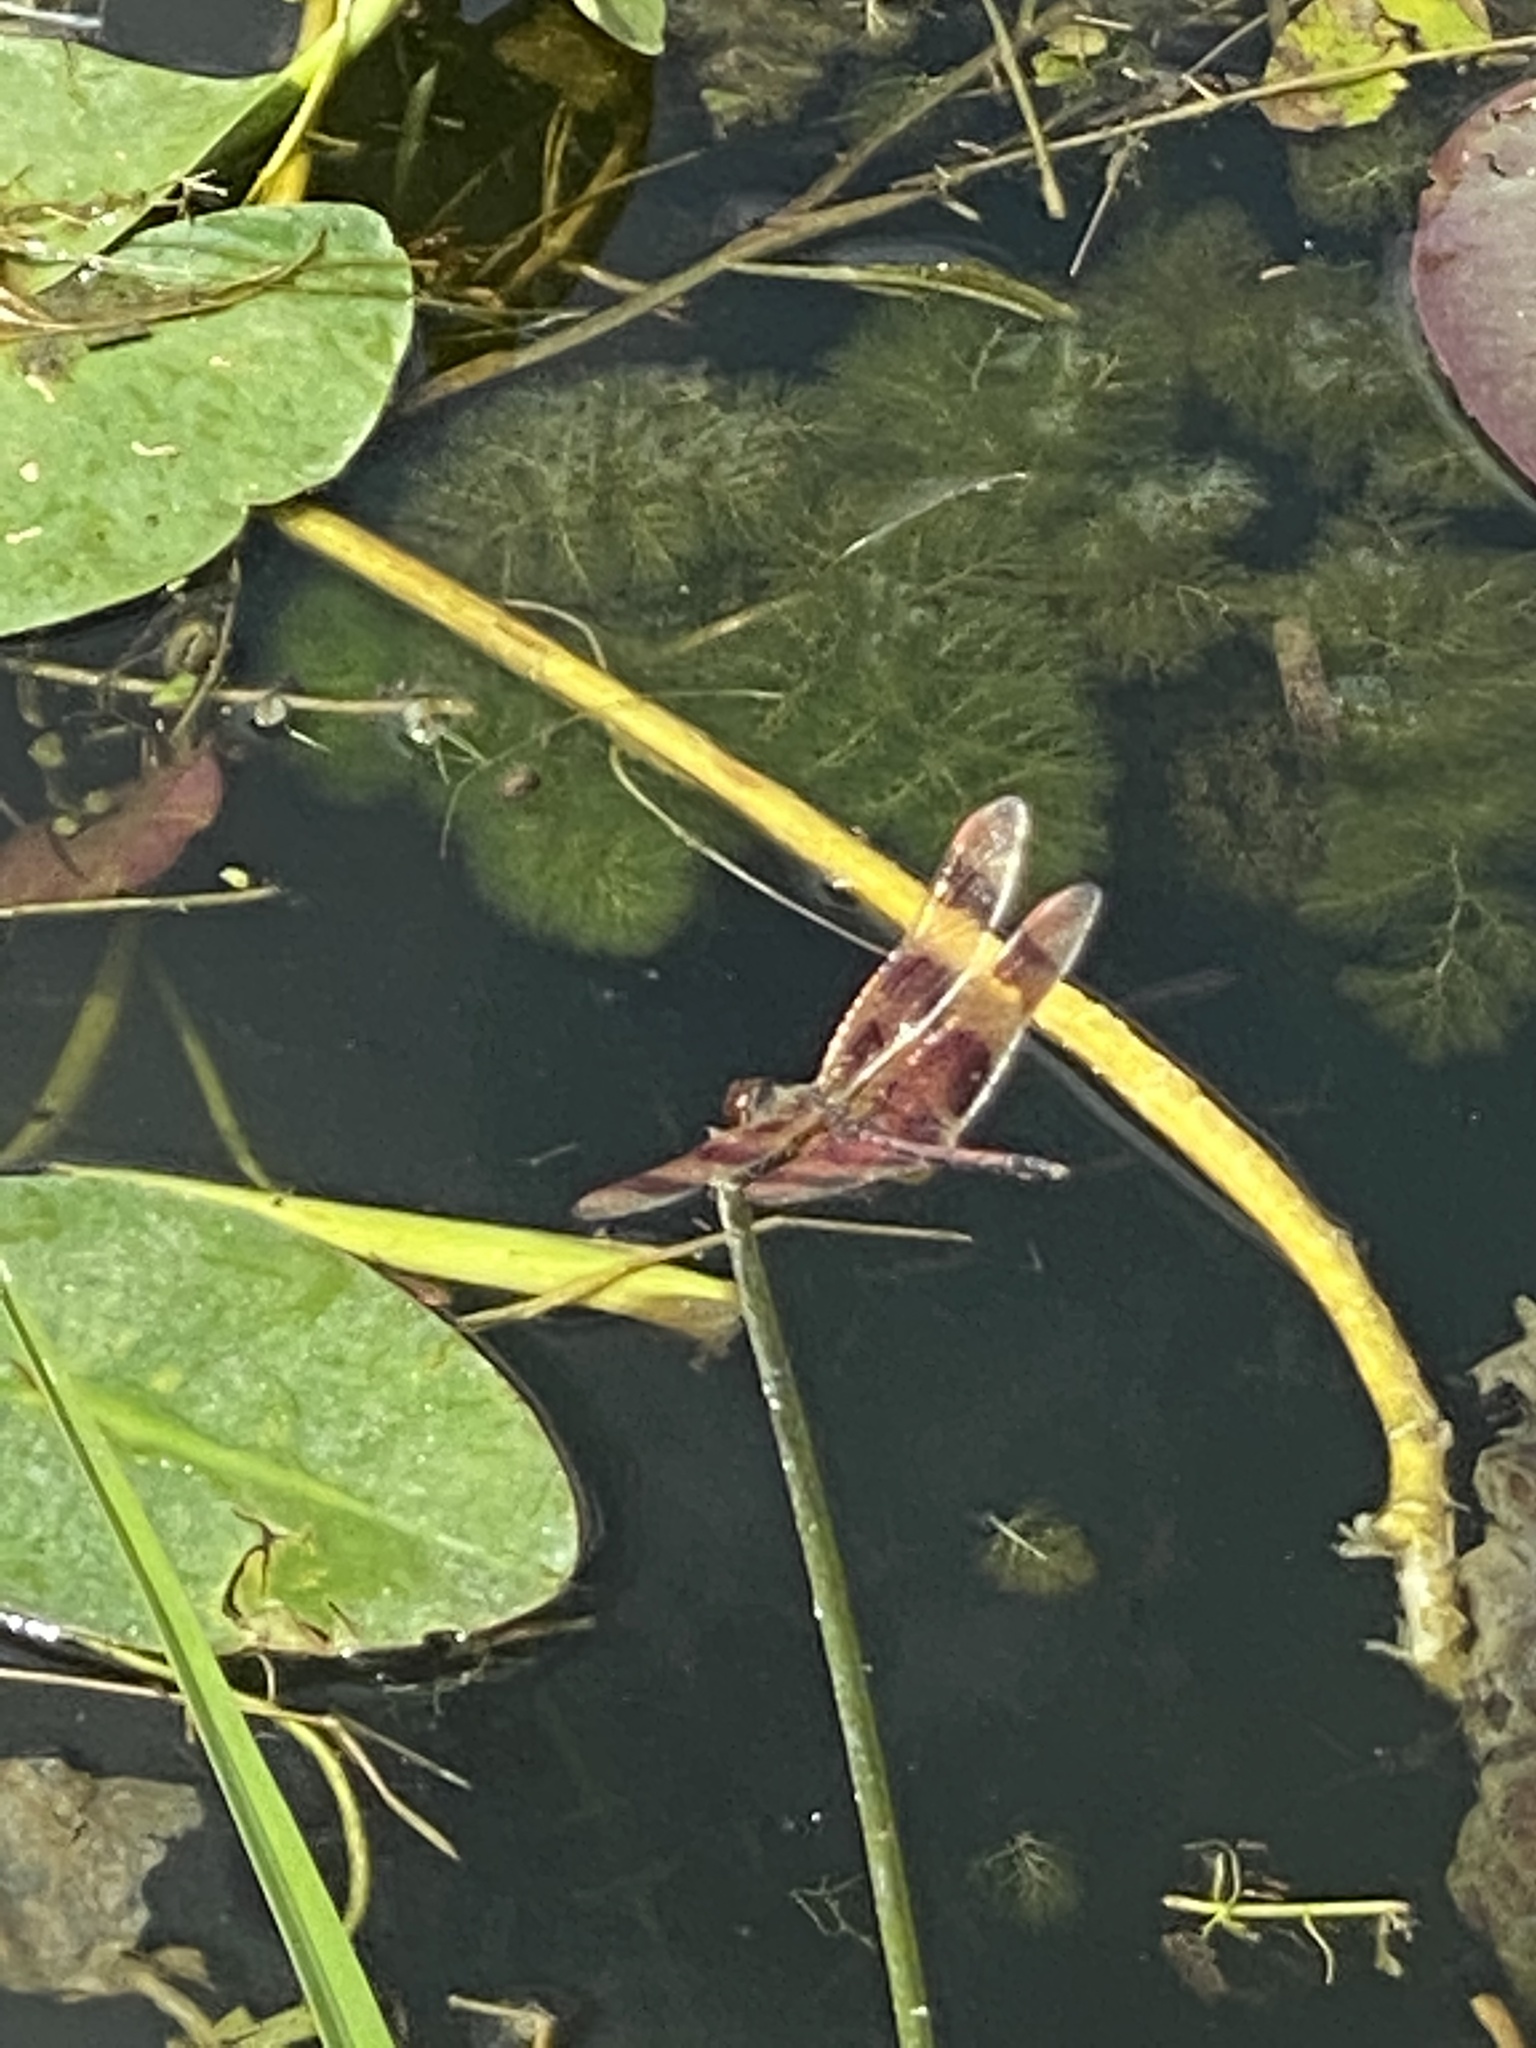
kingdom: Animalia
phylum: Arthropoda
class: Insecta
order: Odonata
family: Libellulidae
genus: Celithemis
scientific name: Celithemis eponina
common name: Halloween pennant
